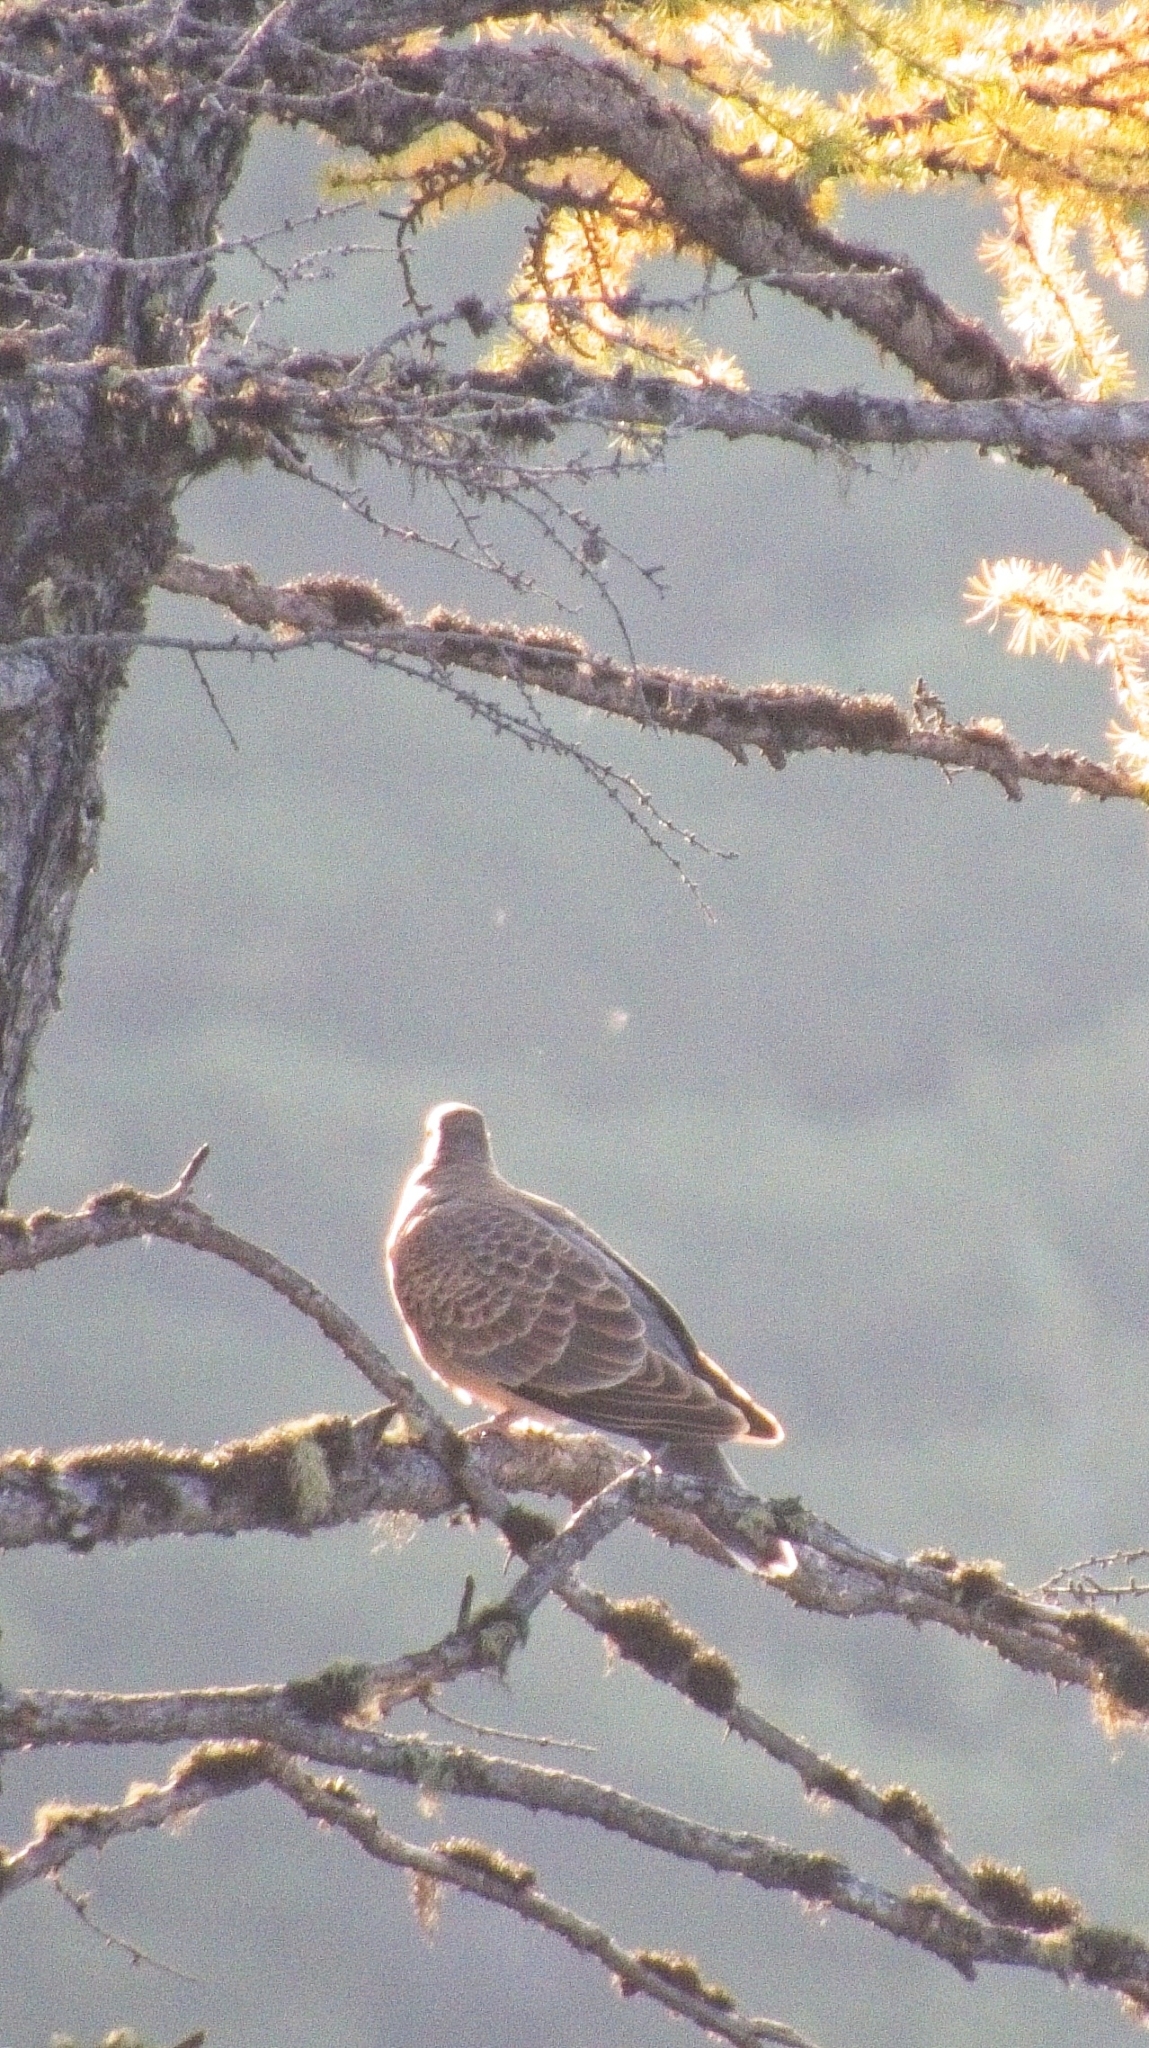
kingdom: Animalia
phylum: Chordata
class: Aves
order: Columbiformes
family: Columbidae
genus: Streptopelia
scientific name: Streptopelia orientalis
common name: Oriental turtle dove
